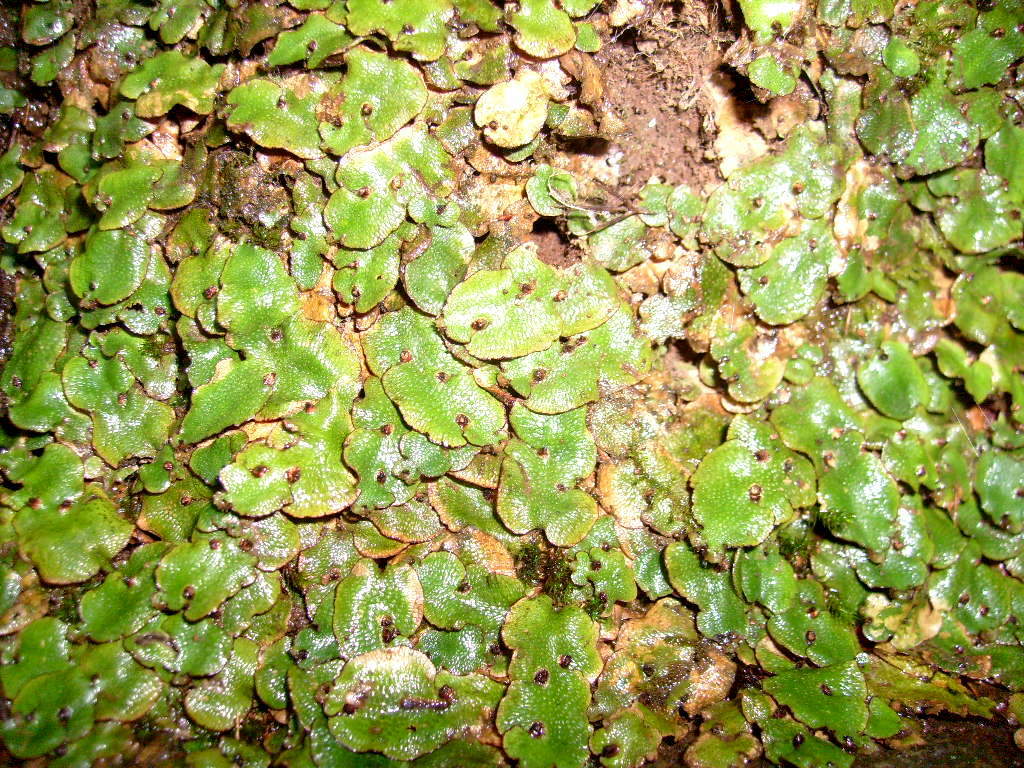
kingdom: Plantae
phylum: Marchantiophyta
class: Marchantiopsida
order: Lunulariales
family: Lunulariaceae
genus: Lunularia
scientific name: Lunularia cruciata
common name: Crescent-cup liverwort
